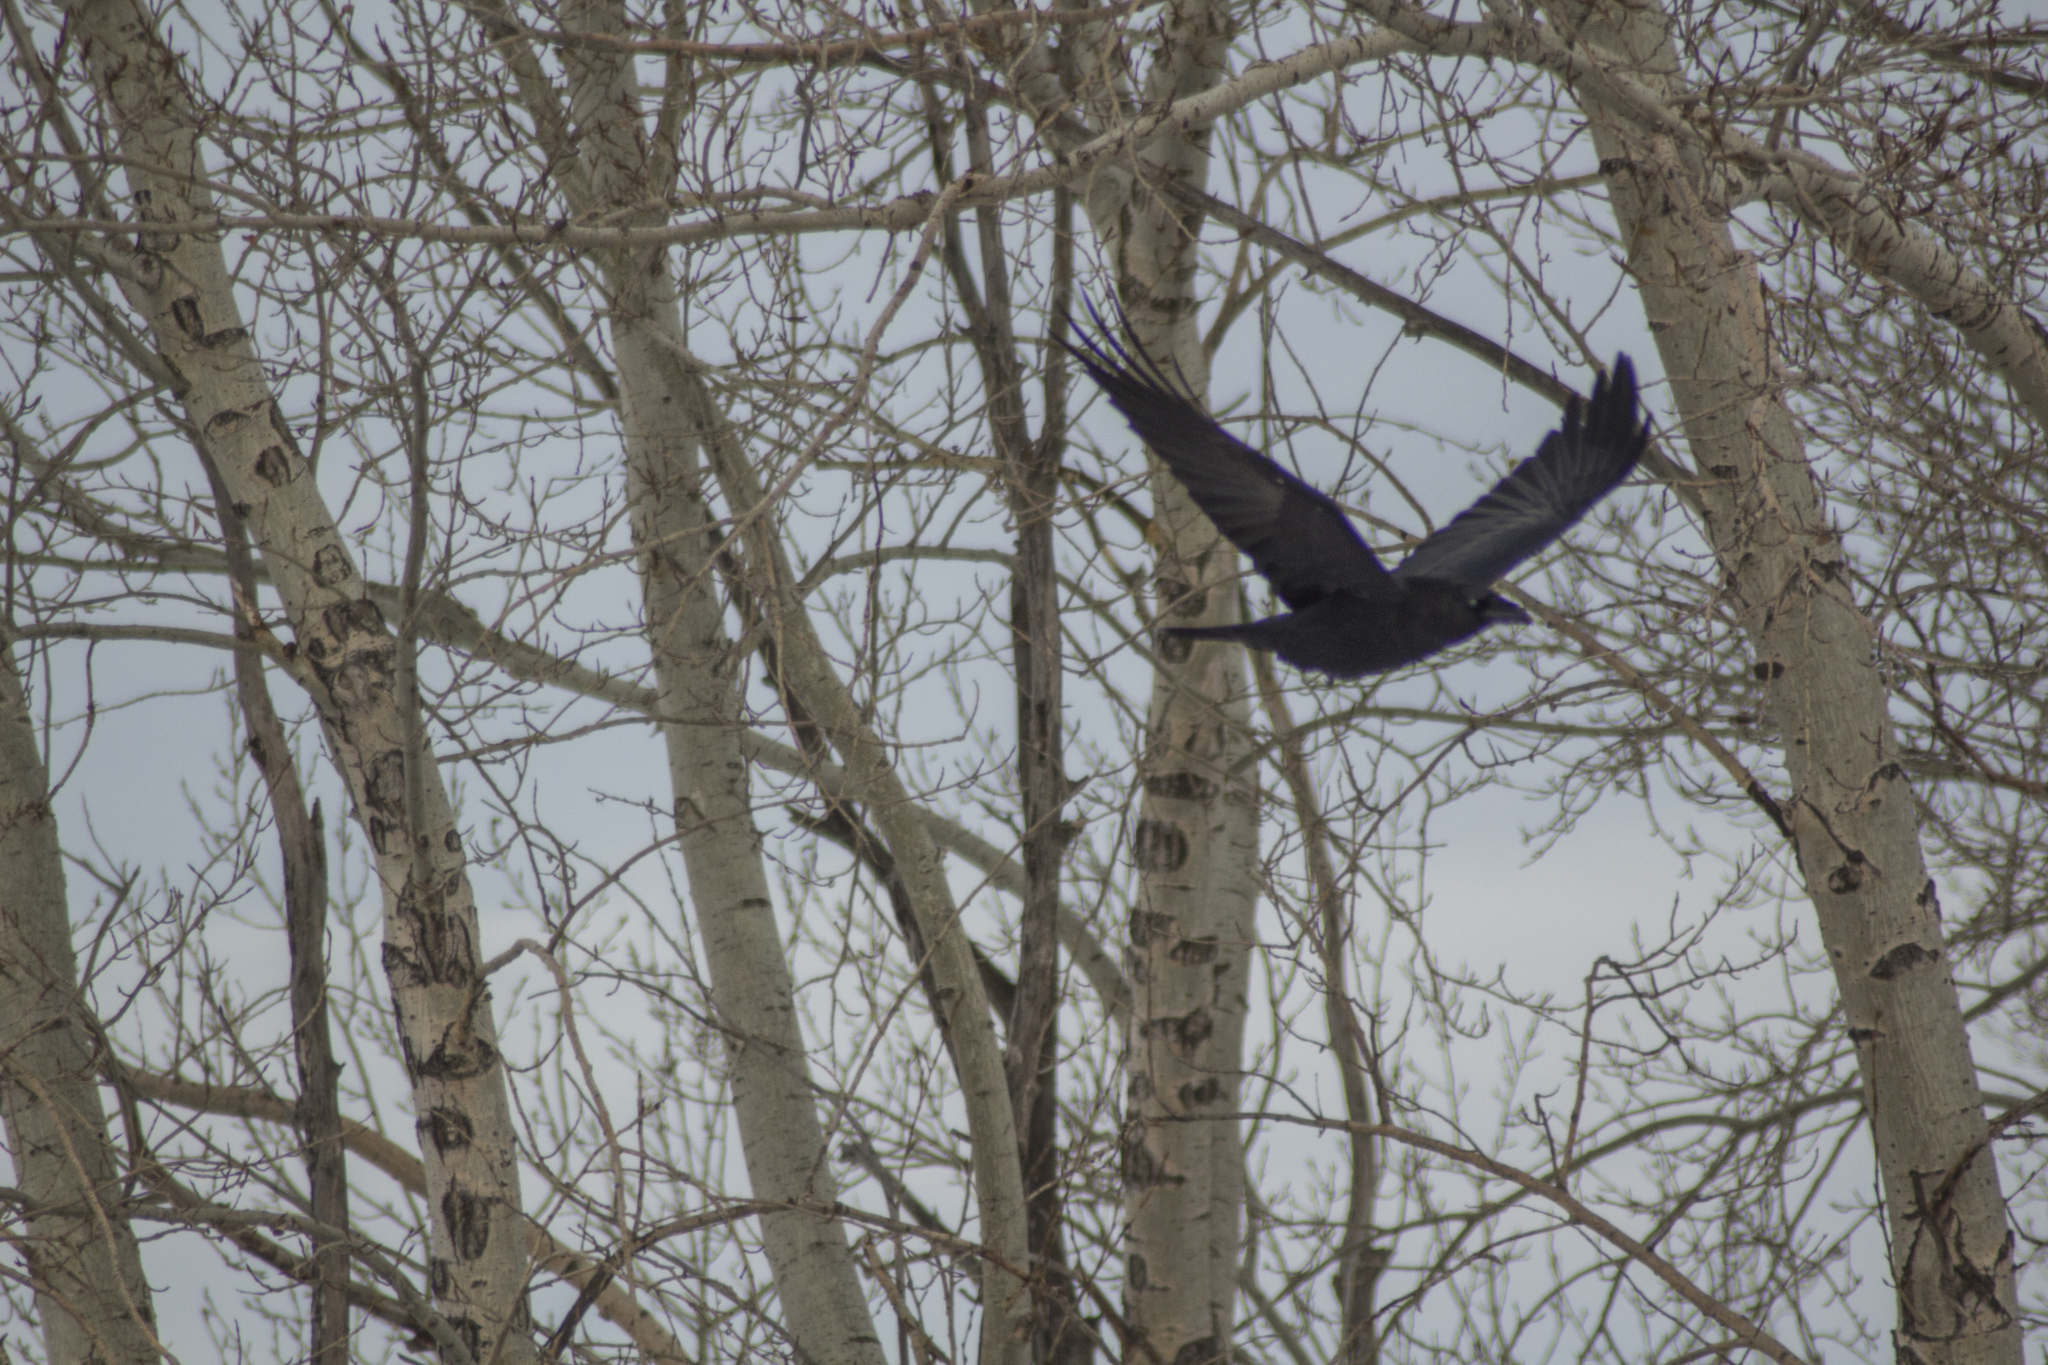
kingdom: Animalia
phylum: Chordata
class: Aves
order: Passeriformes
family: Corvidae
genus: Corvus
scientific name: Corvus corax
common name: Common raven
